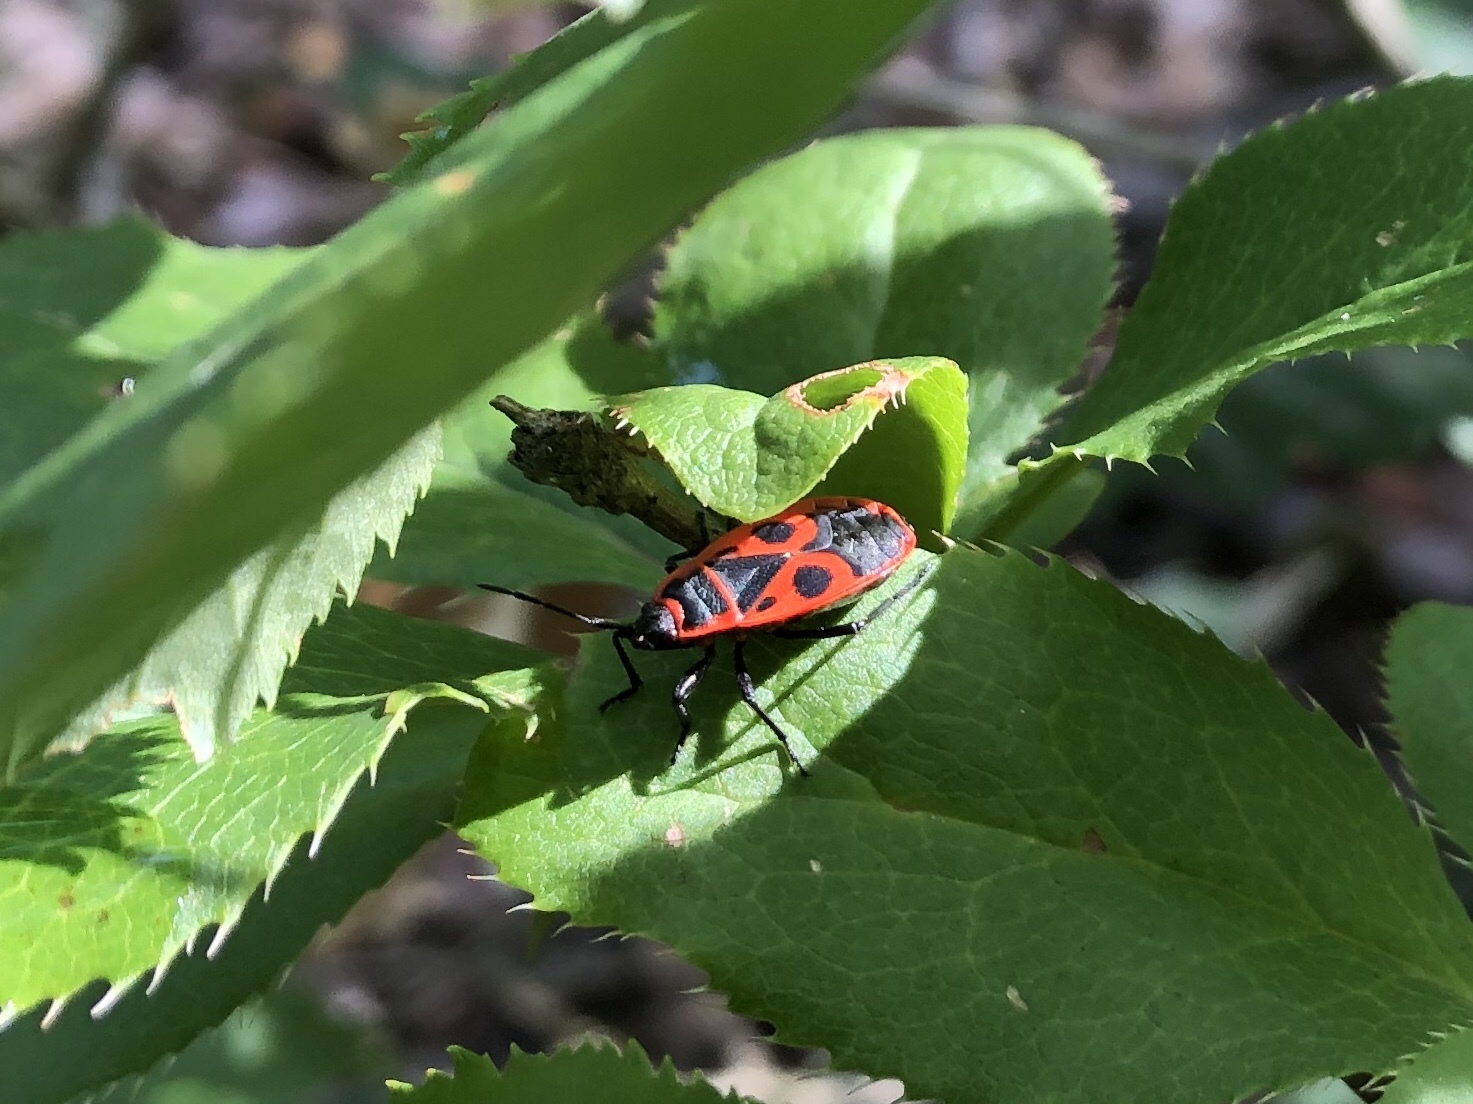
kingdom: Animalia
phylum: Arthropoda
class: Insecta
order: Hemiptera
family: Pyrrhocoridae
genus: Pyrrhocoris
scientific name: Pyrrhocoris apterus
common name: Firebug
